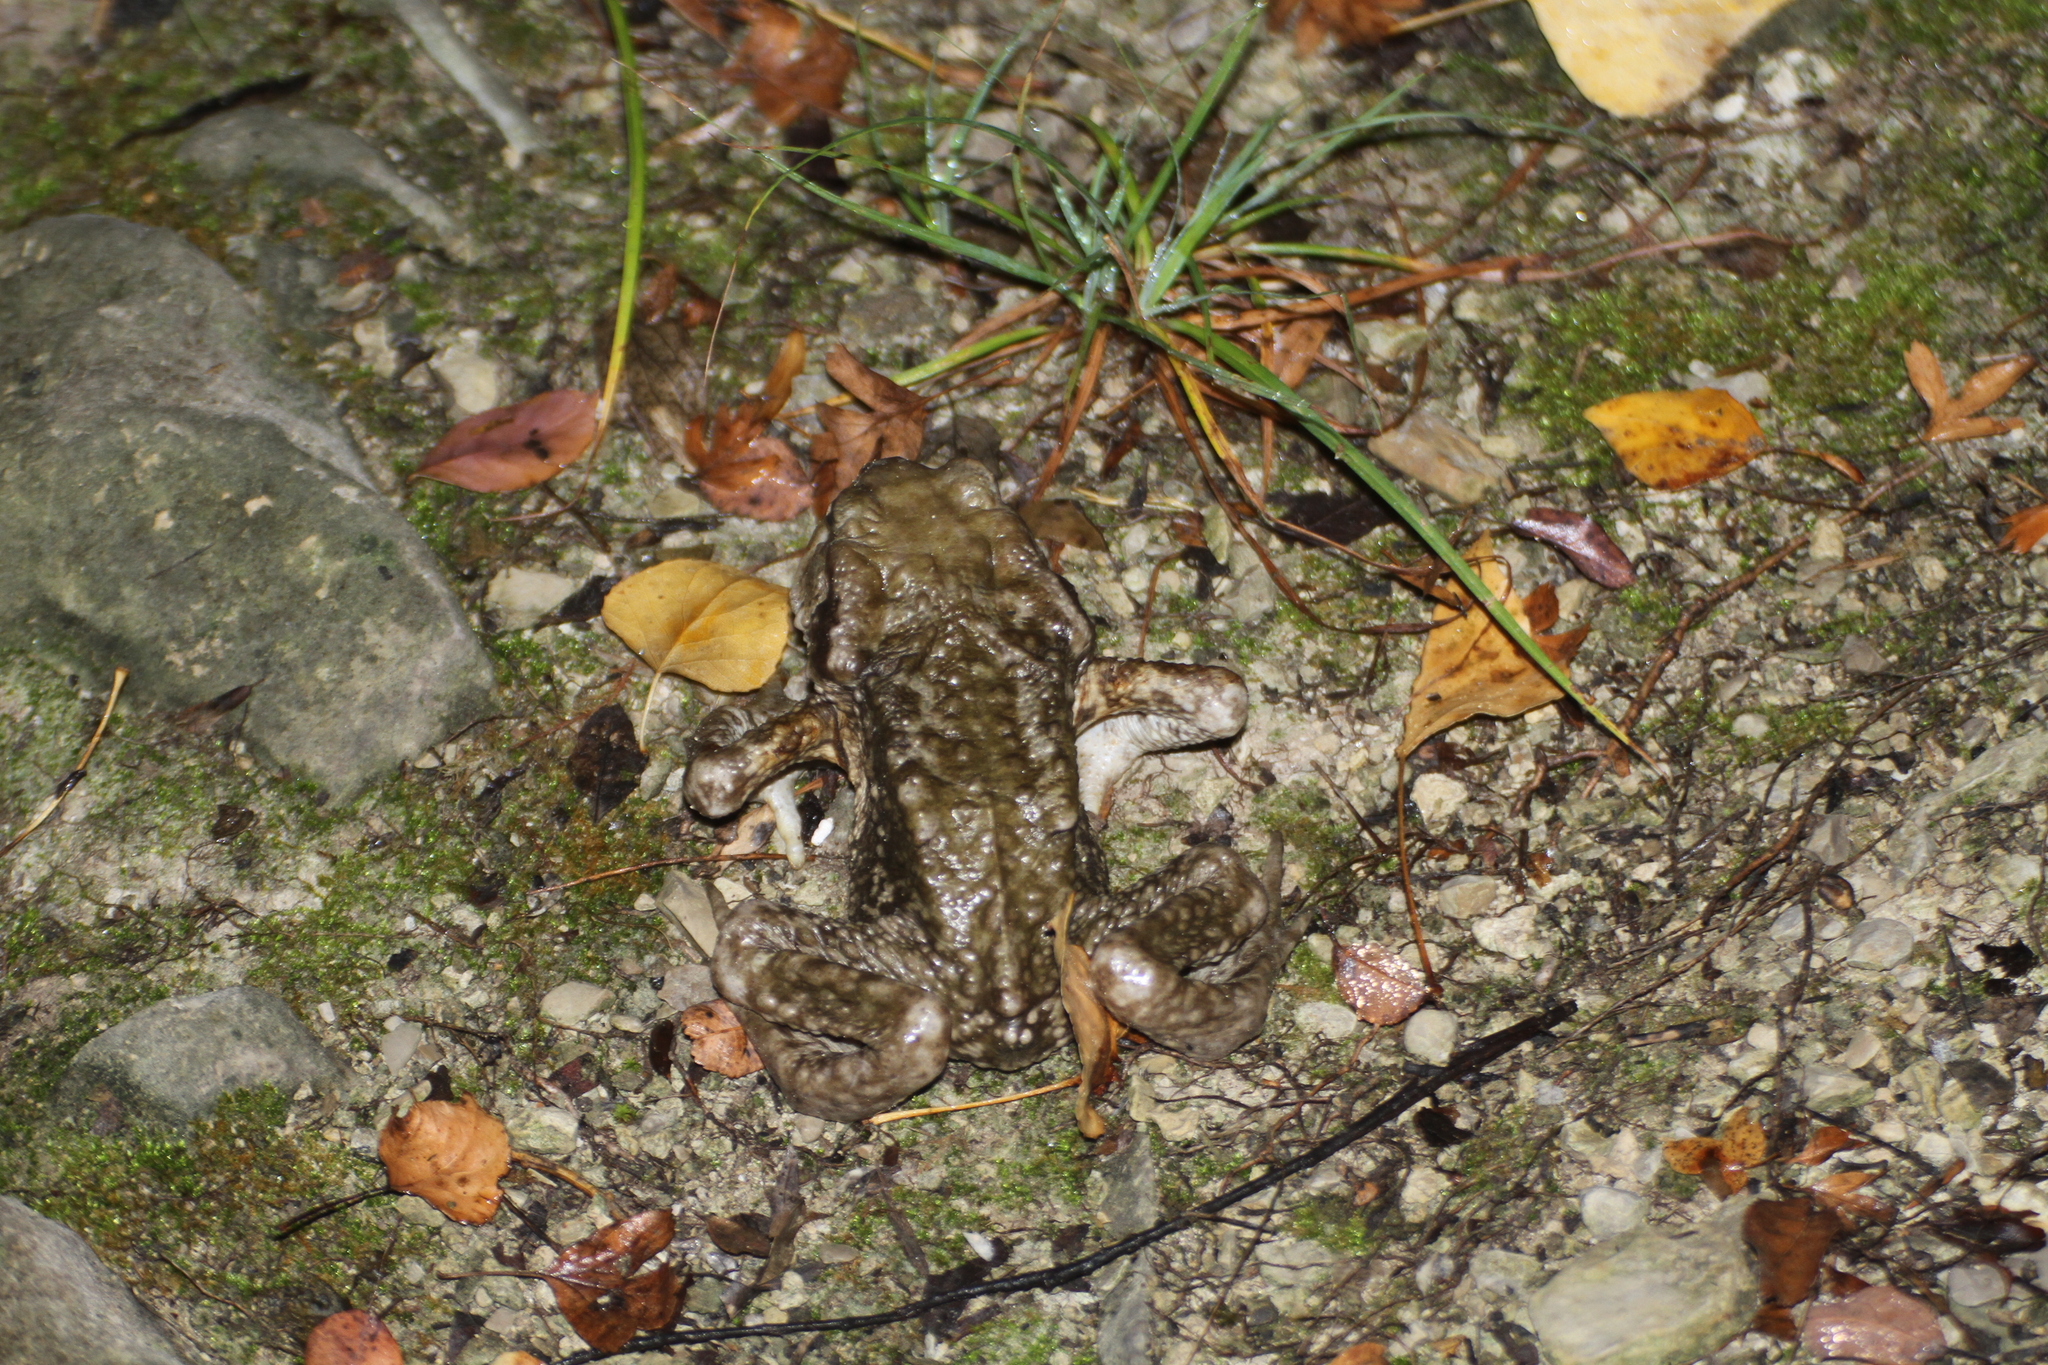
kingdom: Animalia
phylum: Chordata
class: Amphibia
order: Anura
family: Bufonidae
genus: Bufo
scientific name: Bufo spinosus
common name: Western common toad
